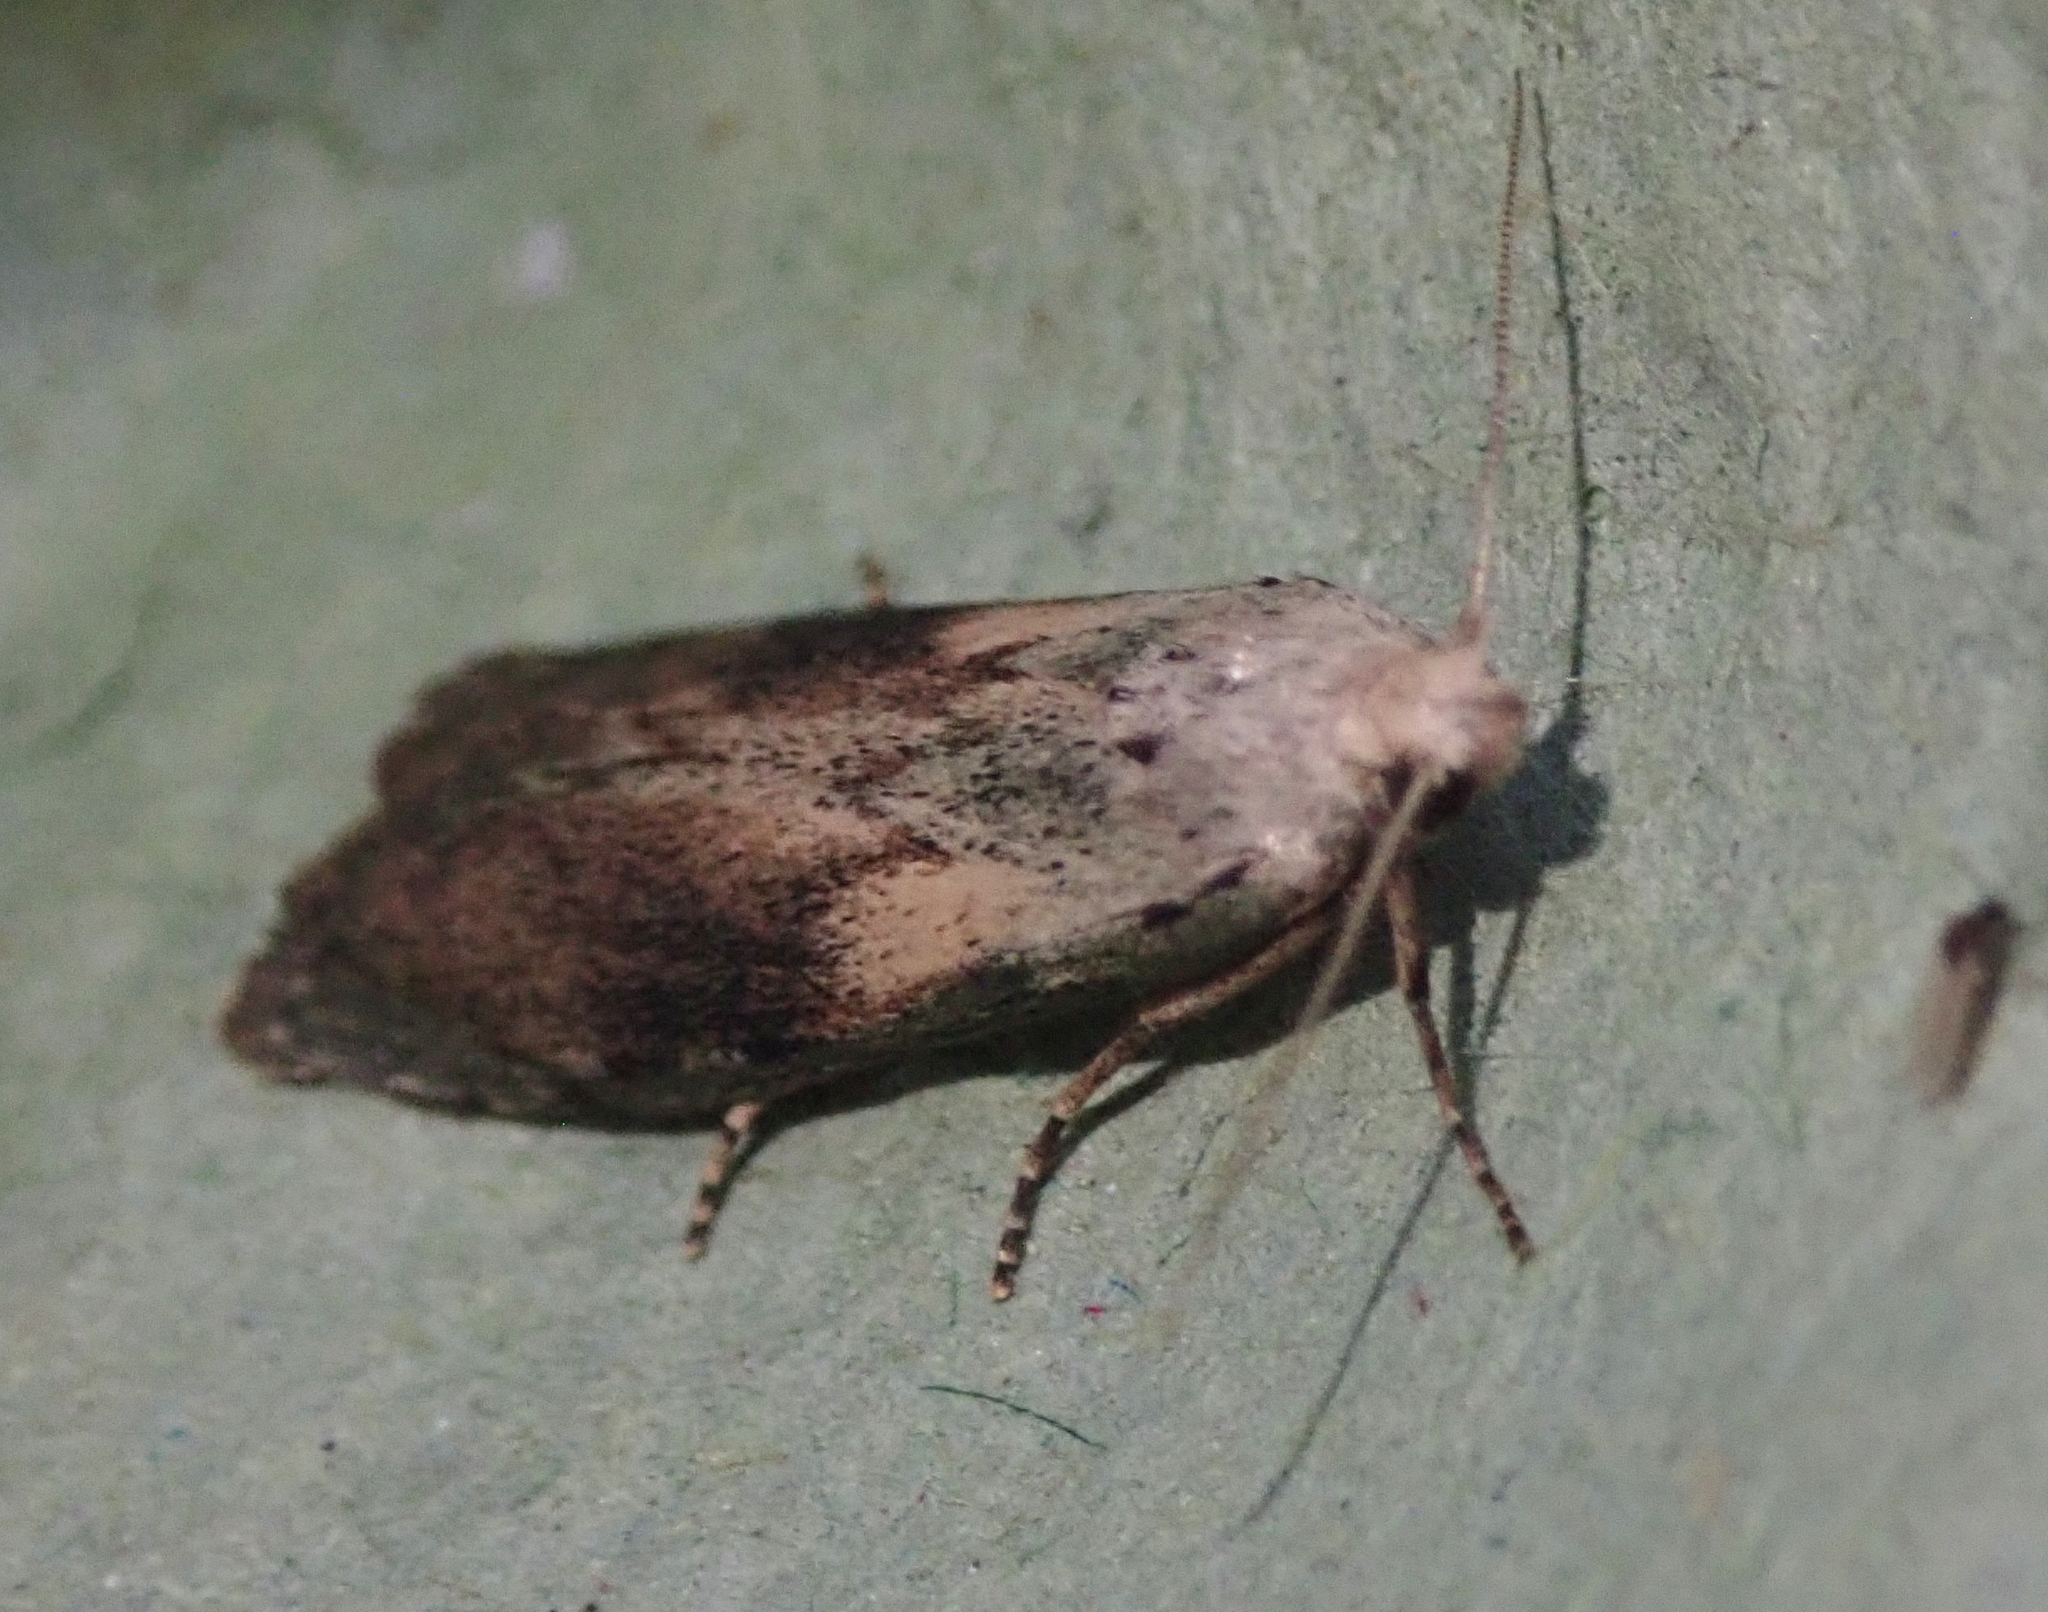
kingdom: Animalia
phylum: Arthropoda
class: Insecta
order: Lepidoptera
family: Pyralidae
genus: Aphomia
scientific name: Aphomia sociella
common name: Bee moth
